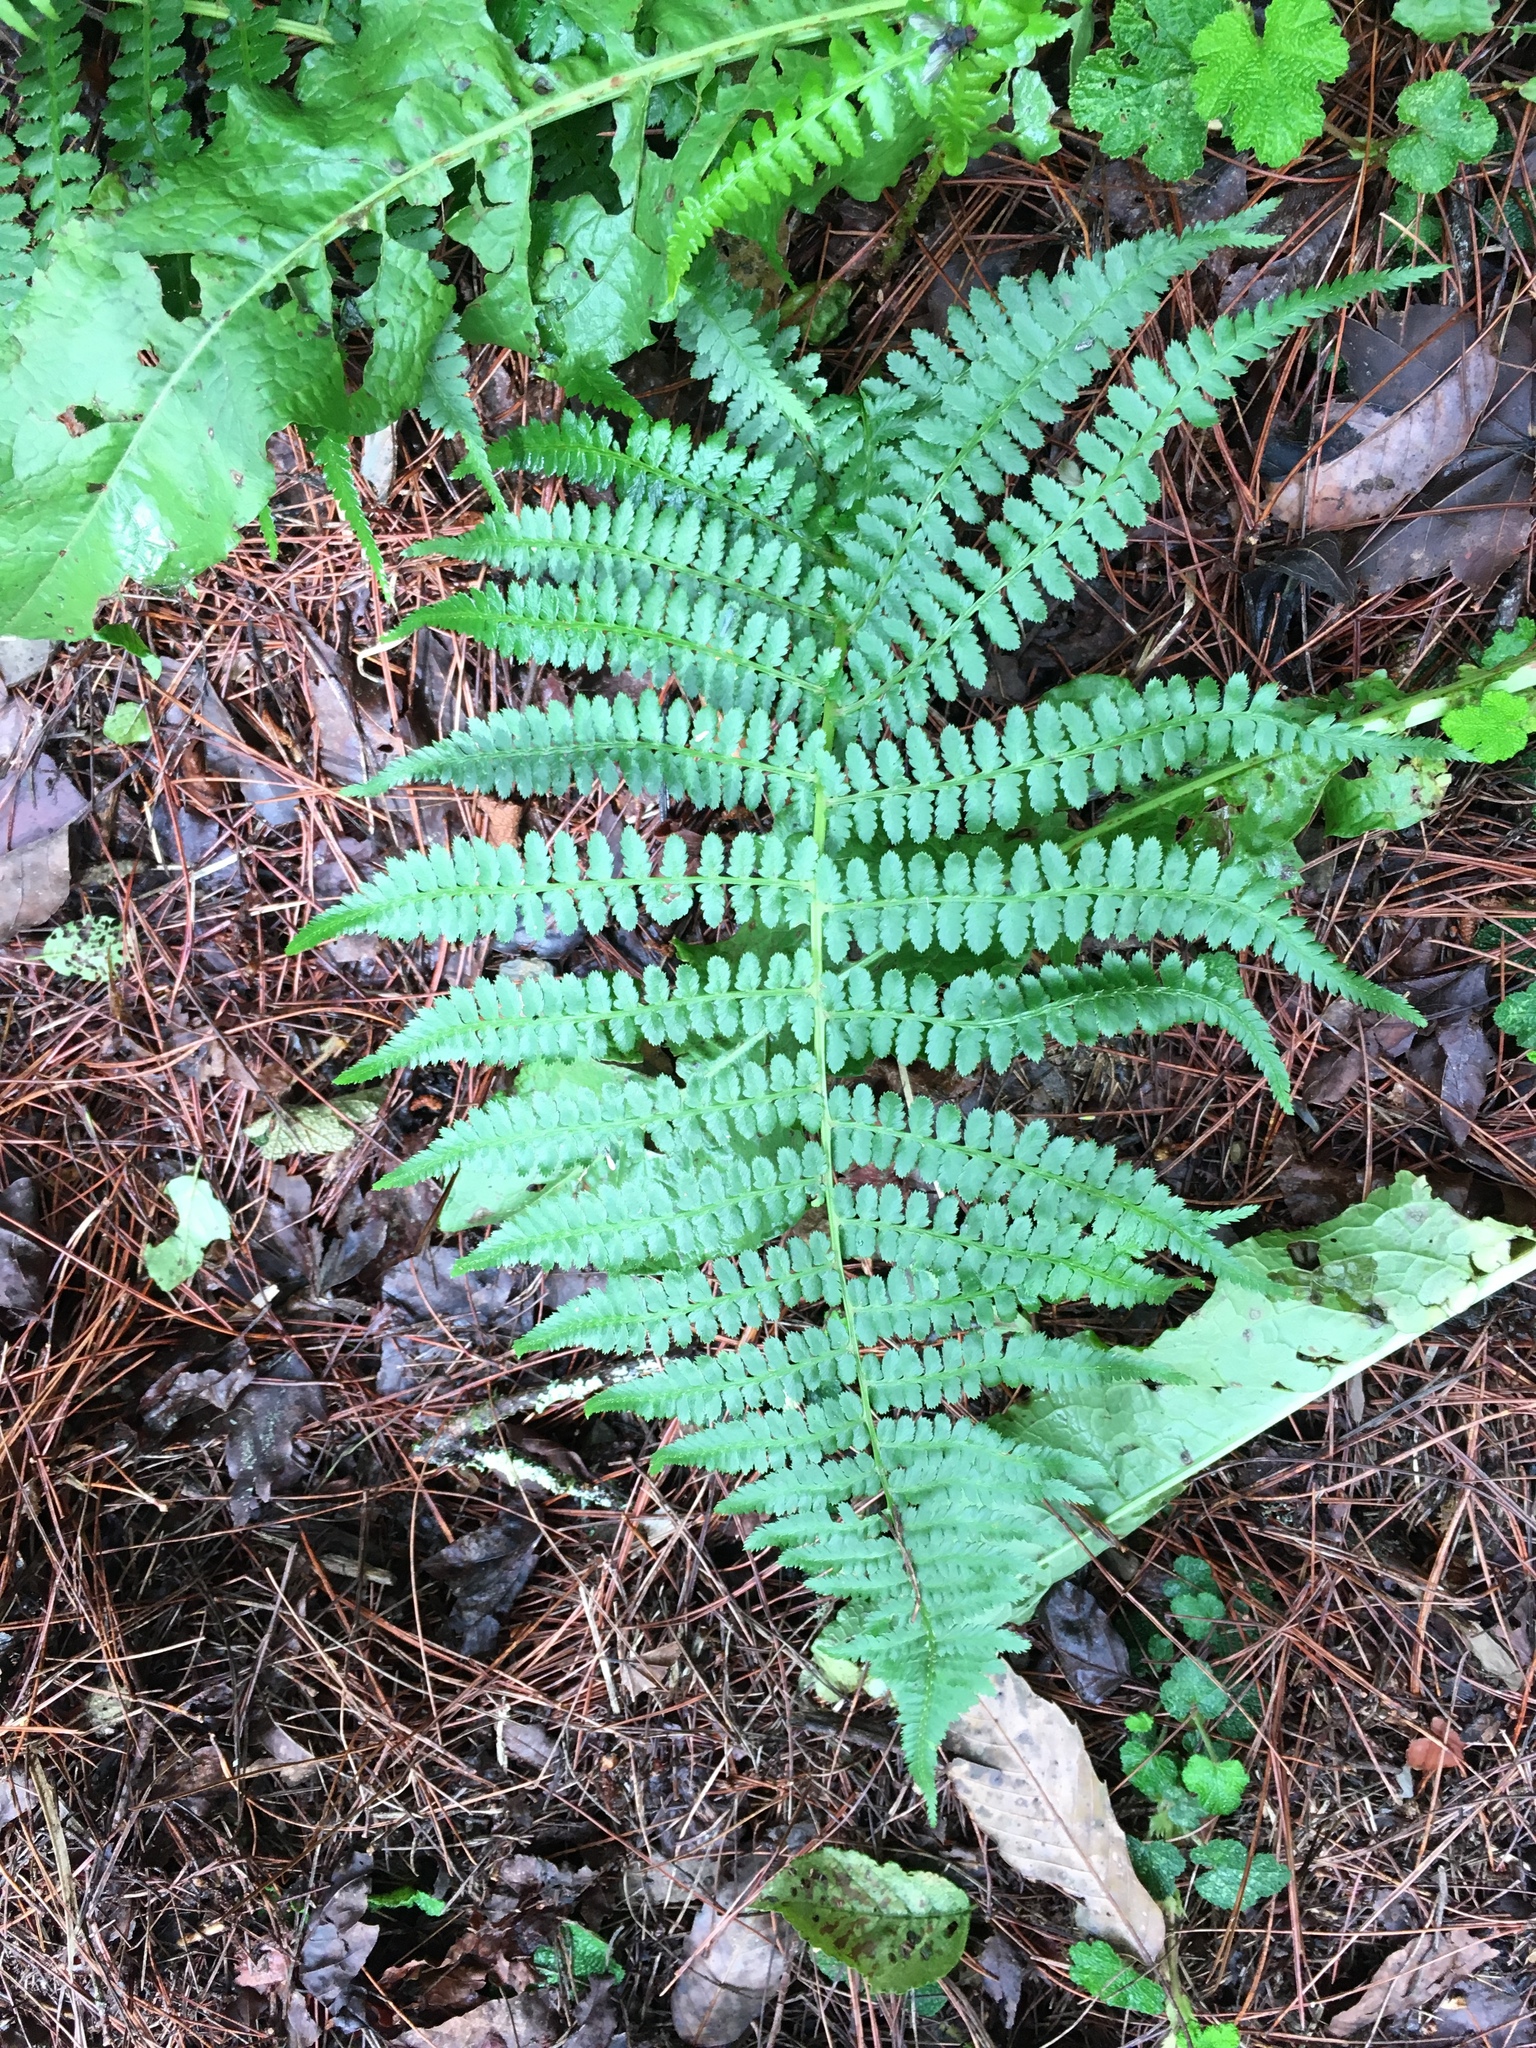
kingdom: Plantae
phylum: Tracheophyta
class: Polypodiopsida
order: Polypodiales
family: Athyriaceae
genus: Athyrium
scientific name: Athyrium oppositipennum
